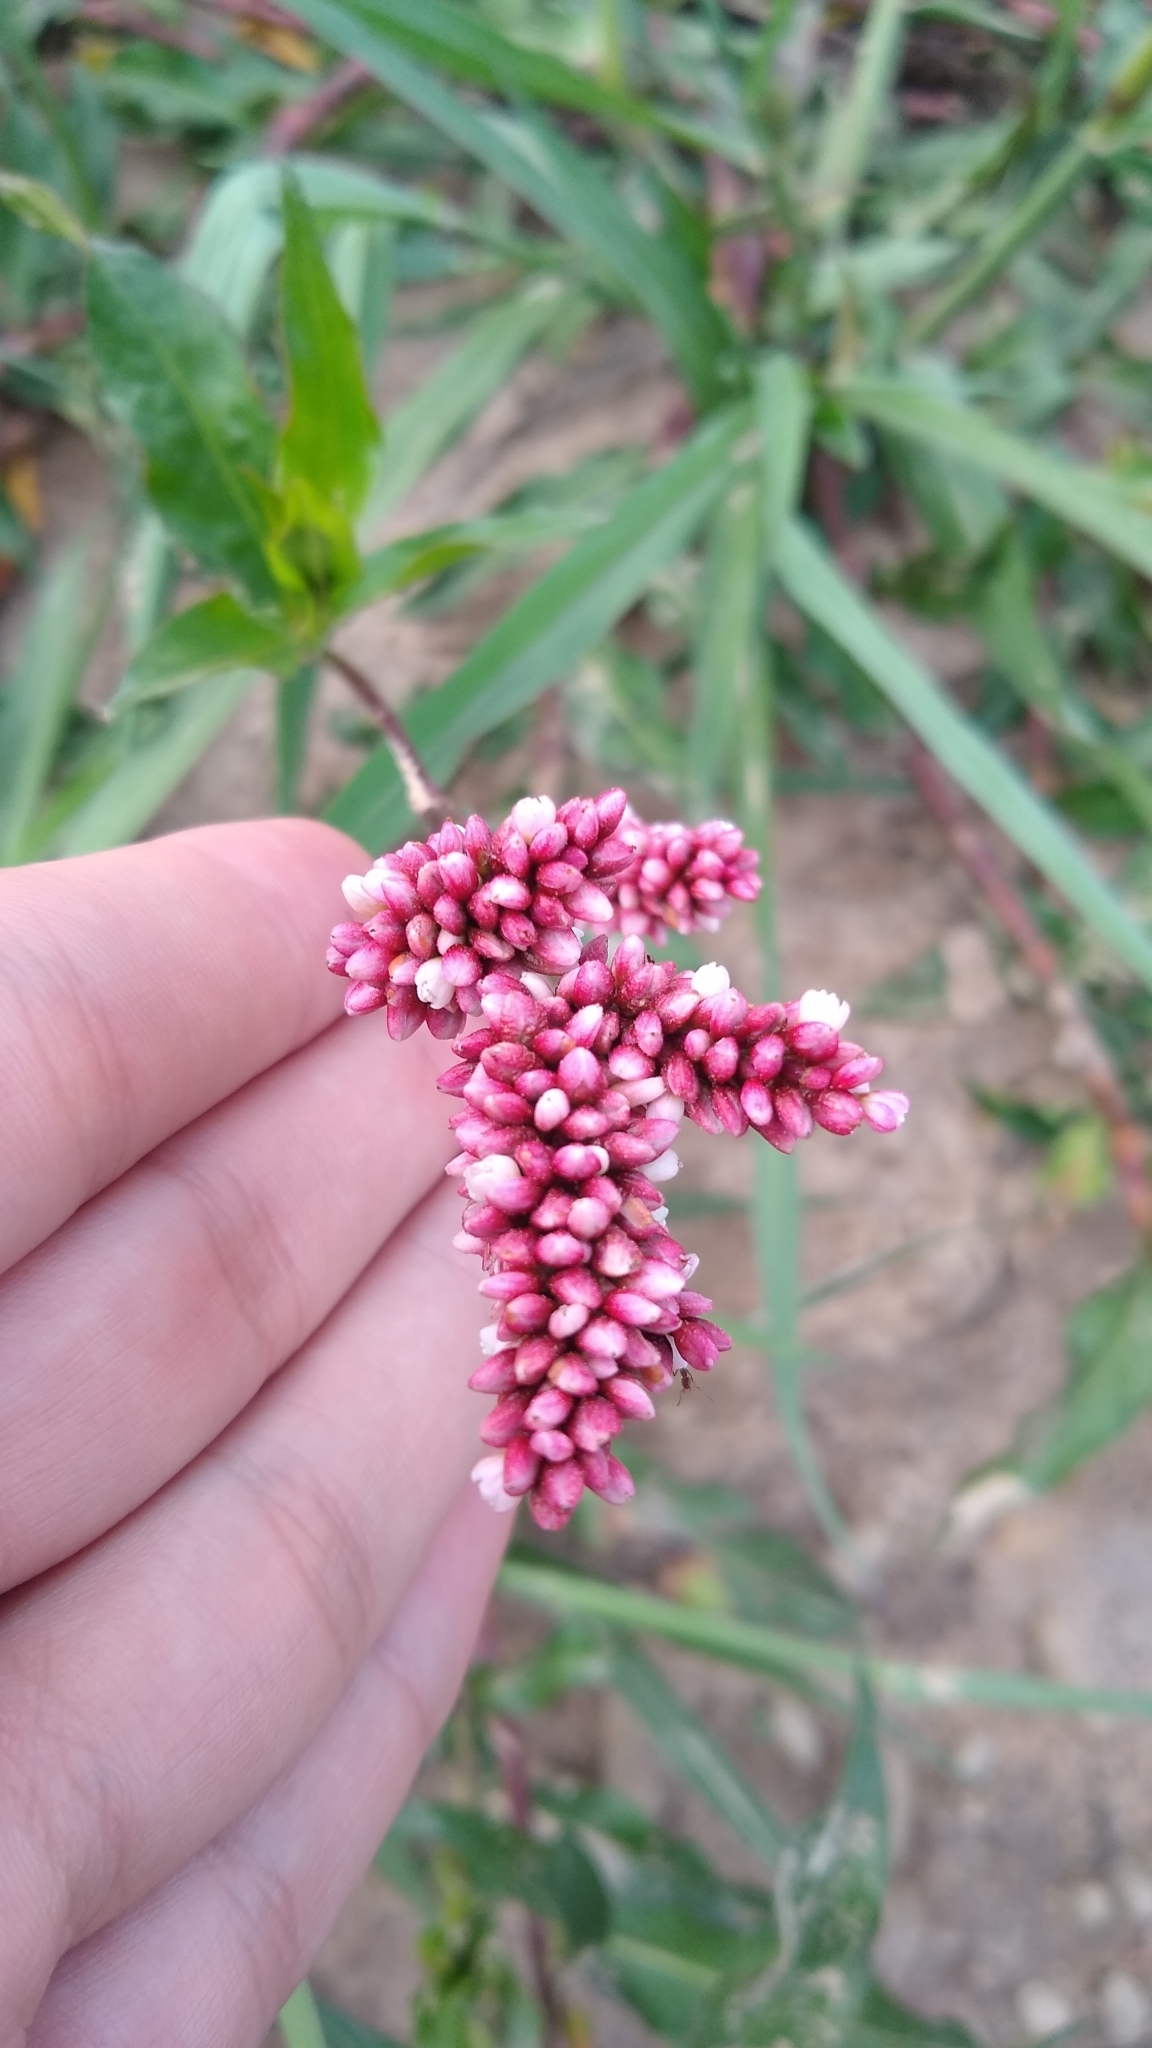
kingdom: Plantae
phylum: Tracheophyta
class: Magnoliopsida
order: Caryophyllales
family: Polygonaceae
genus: Persicaria
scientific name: Persicaria glabra
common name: Denseflower knotweed
